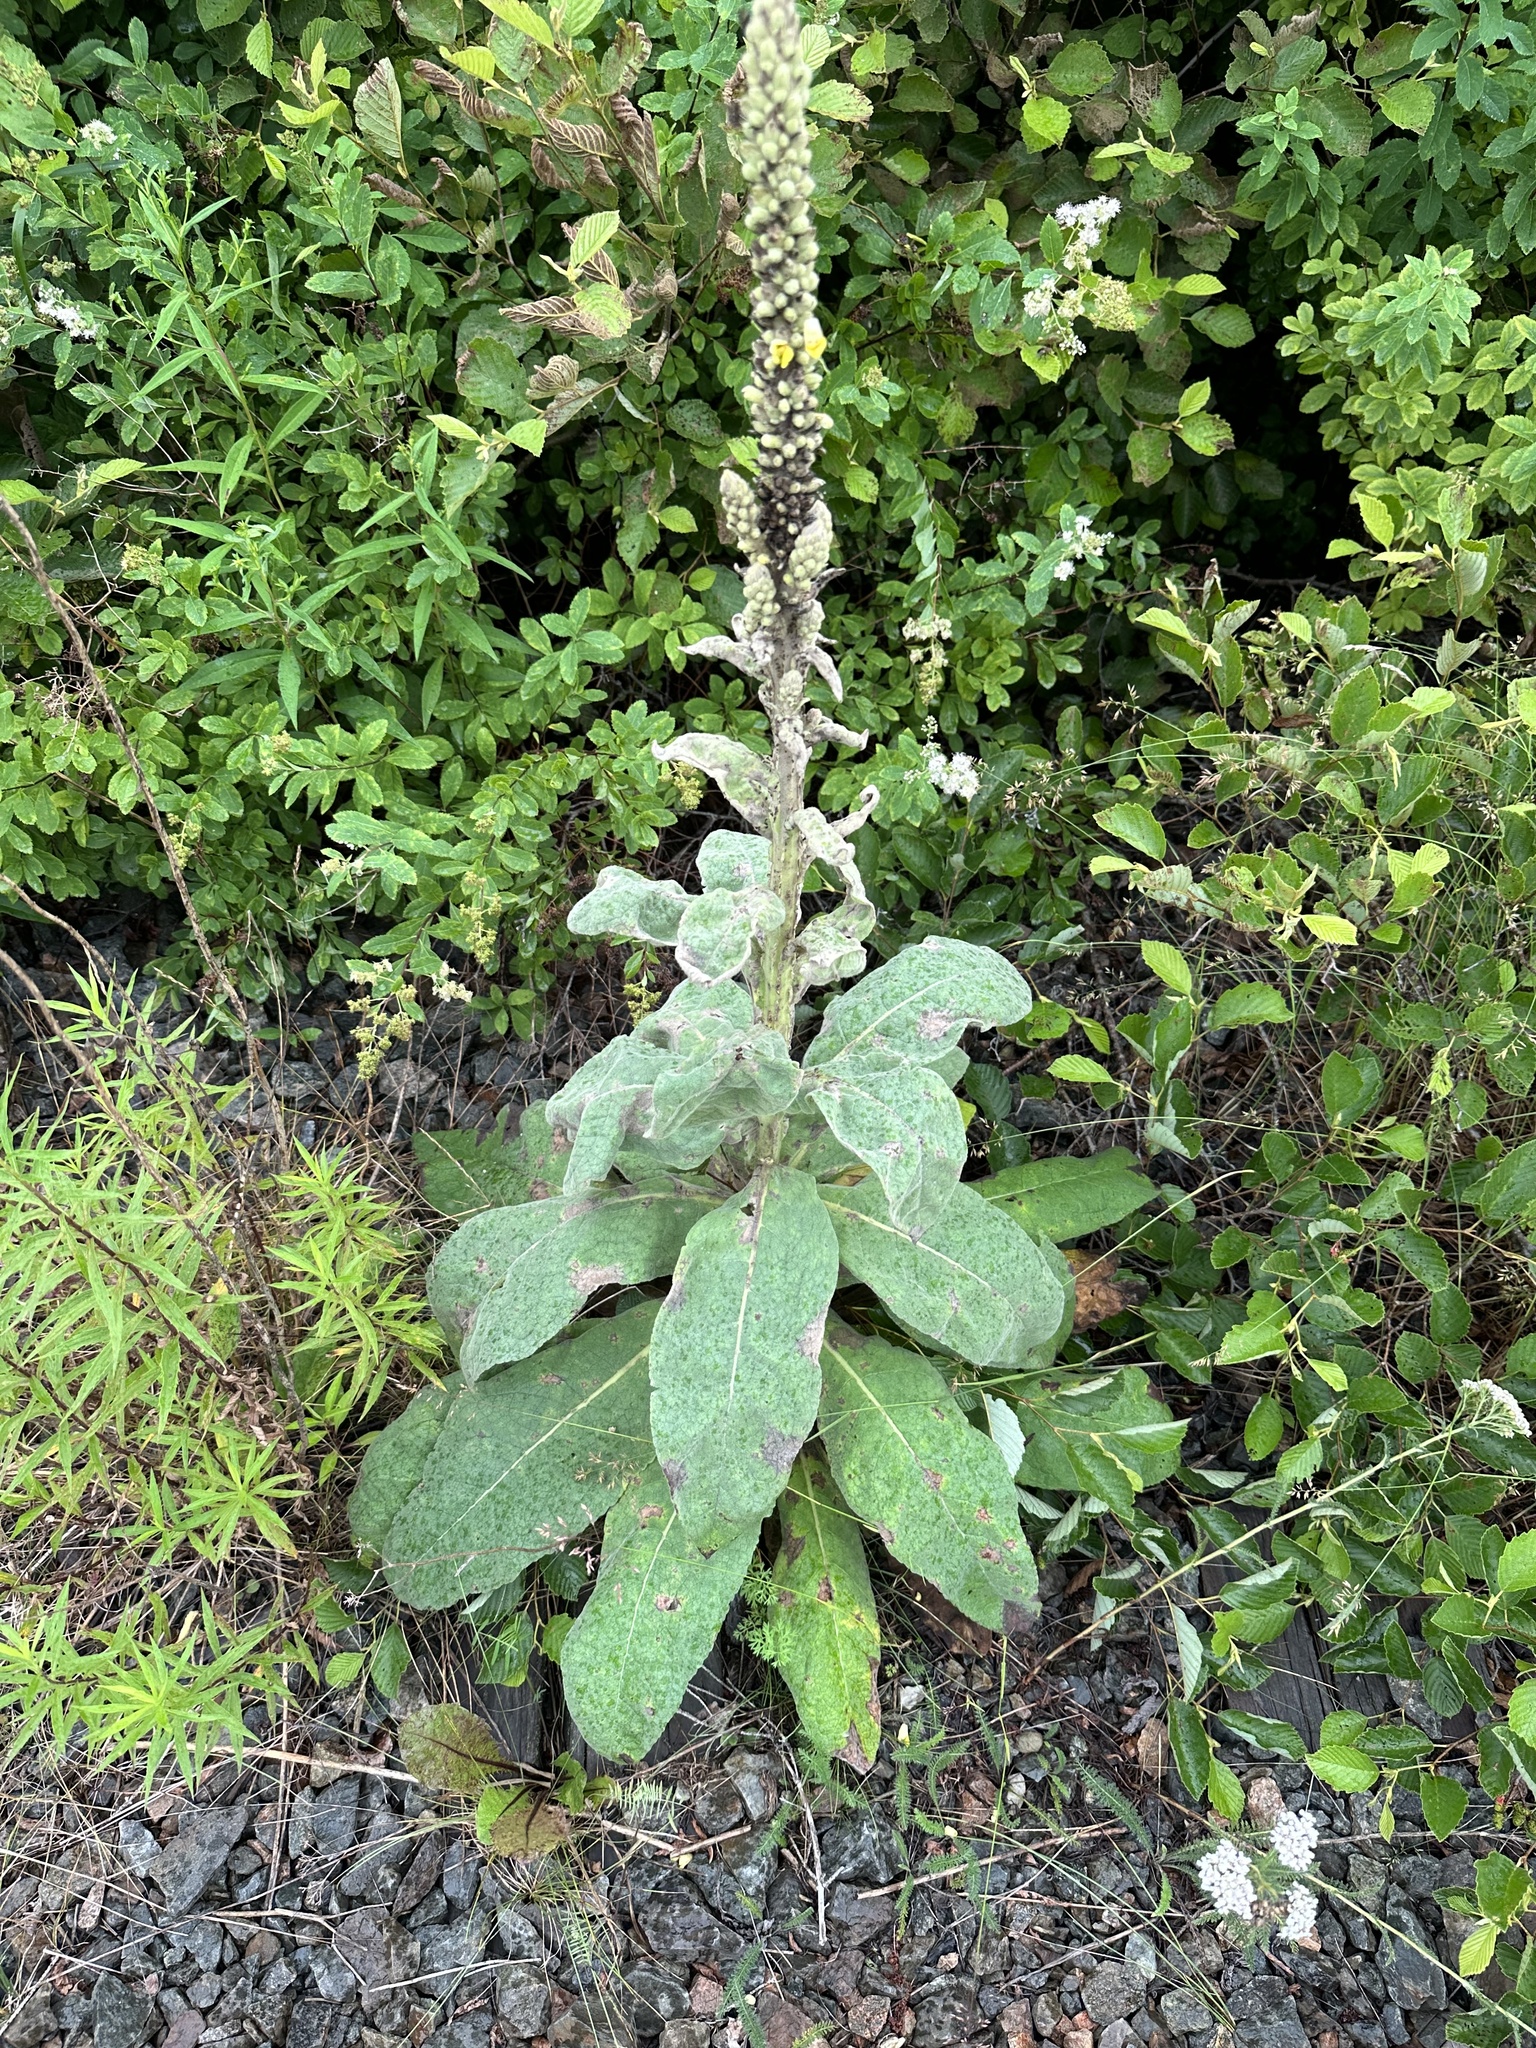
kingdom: Plantae
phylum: Tracheophyta
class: Magnoliopsida
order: Lamiales
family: Scrophulariaceae
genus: Verbascum
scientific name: Verbascum thapsus
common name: Common mullein
